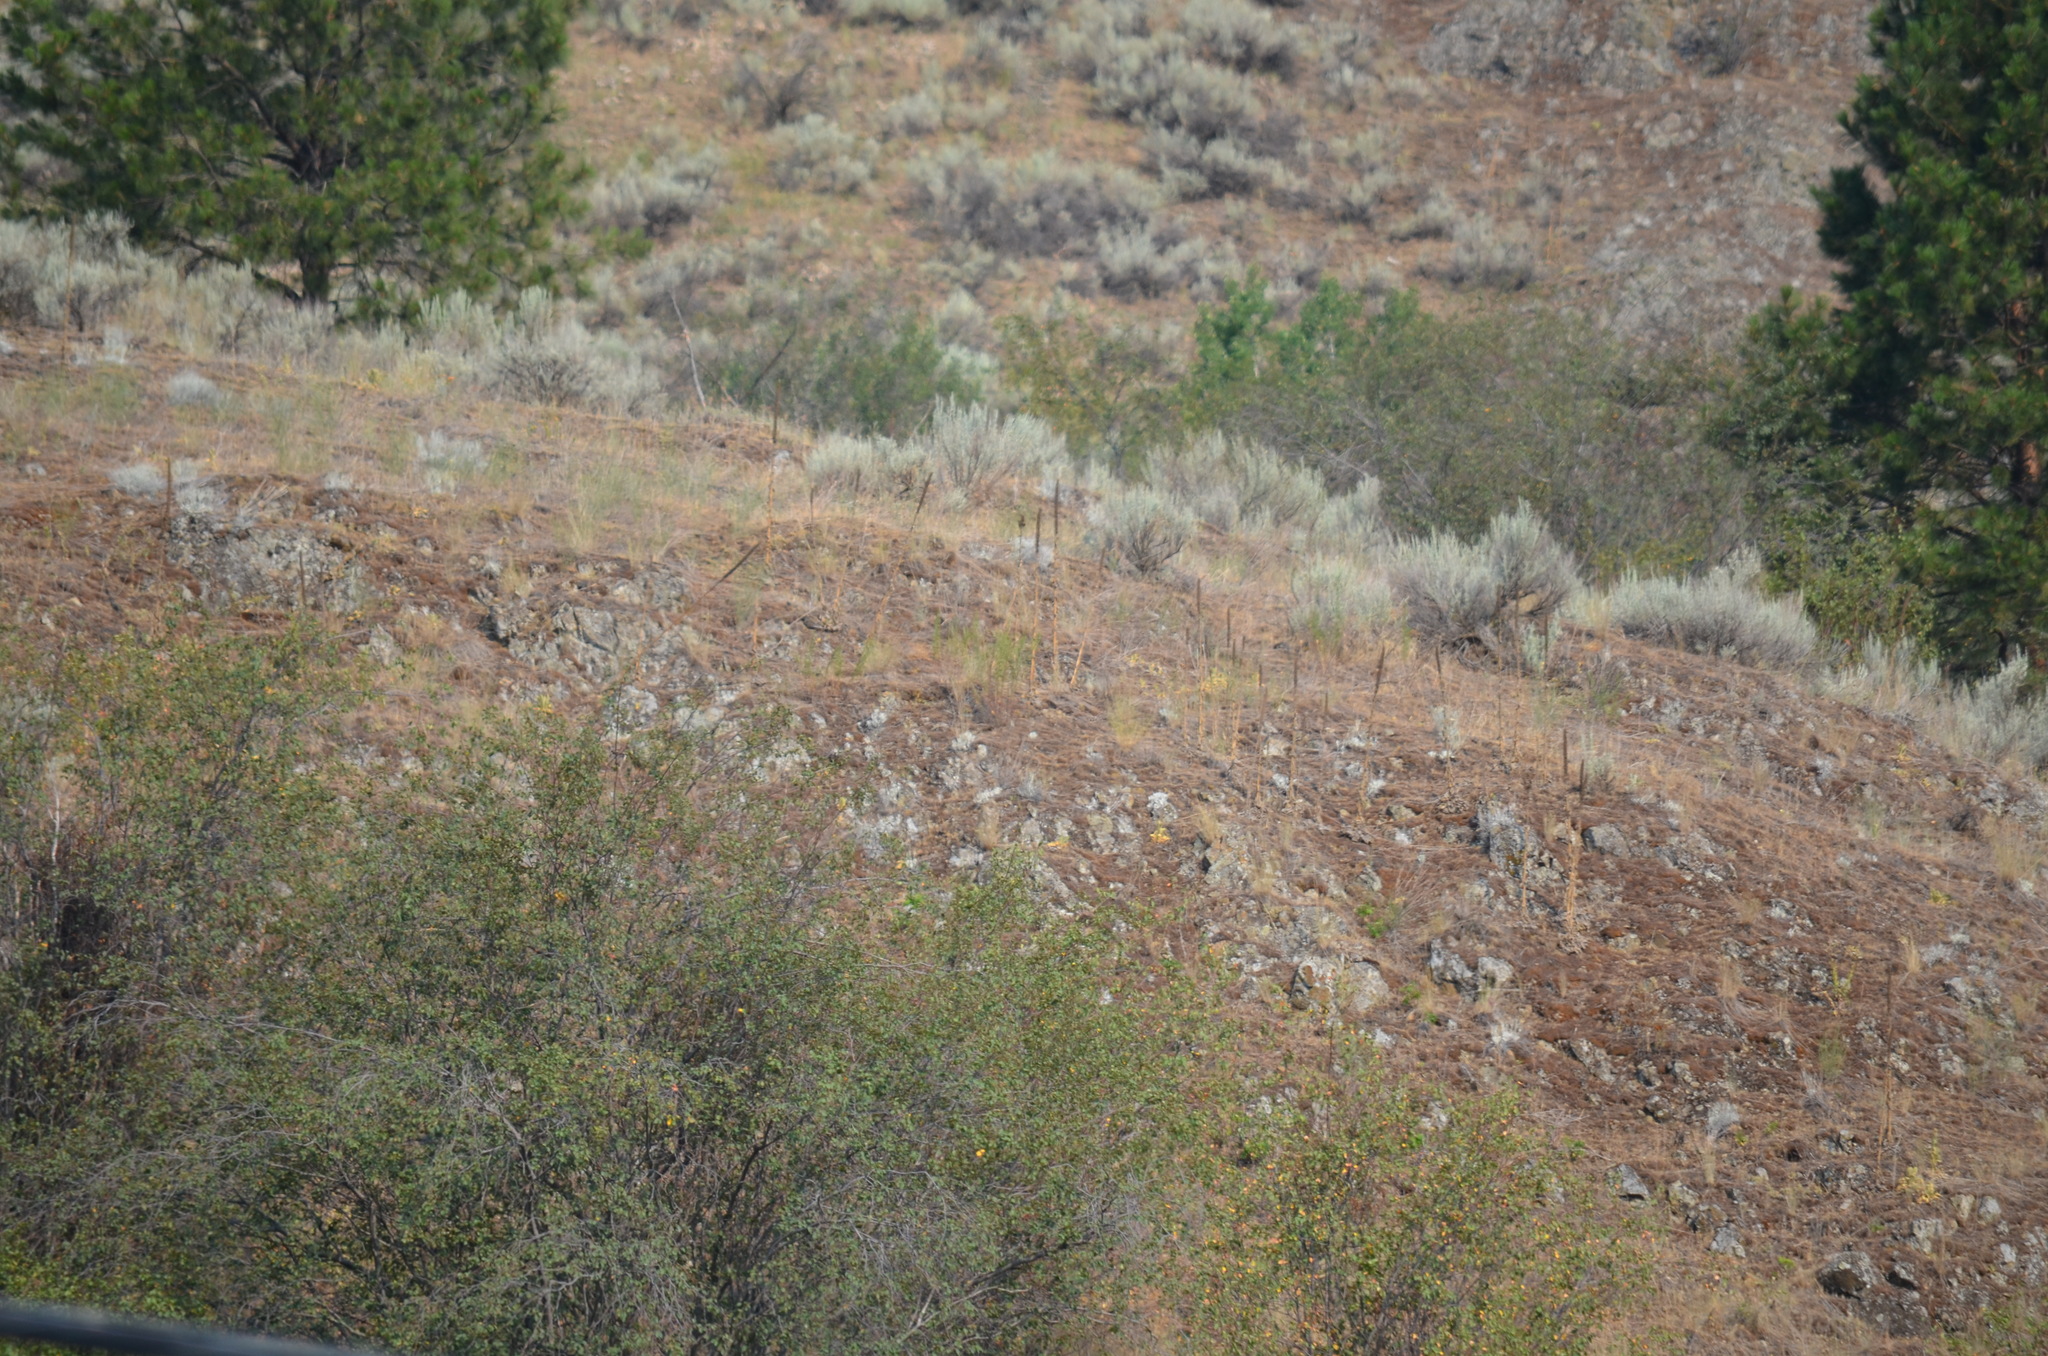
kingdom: Plantae
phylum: Tracheophyta
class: Magnoliopsida
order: Asterales
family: Asteraceae
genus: Artemisia
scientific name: Artemisia tridentata
